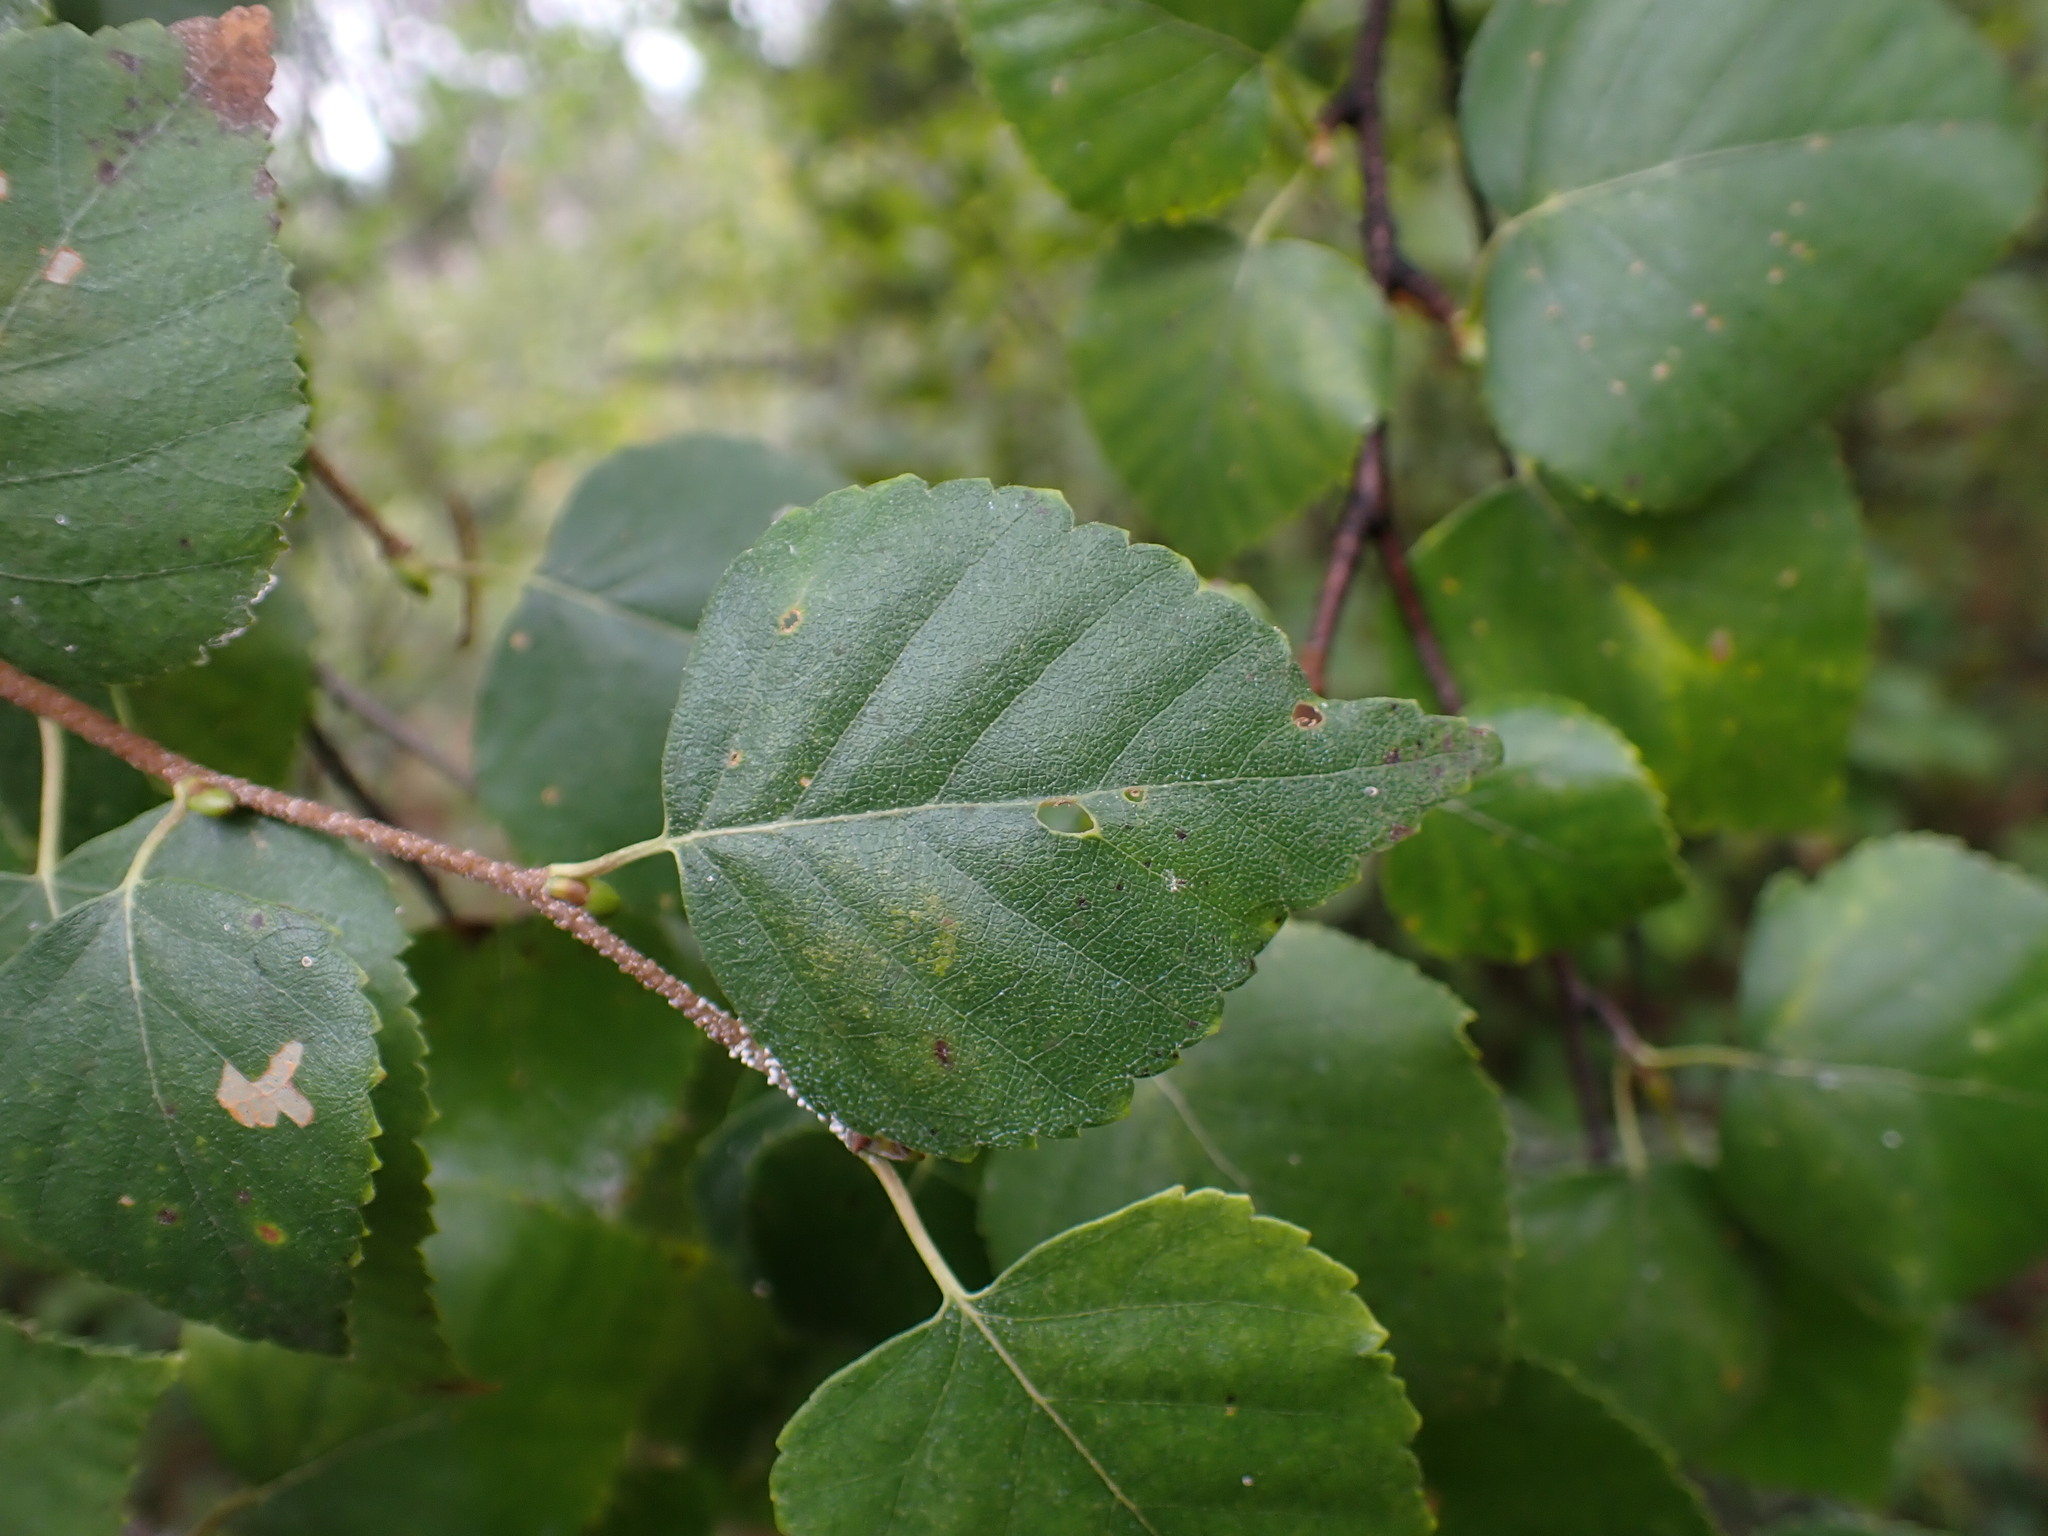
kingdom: Plantae
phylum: Tracheophyta
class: Magnoliopsida
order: Fagales
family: Betulaceae
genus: Betula
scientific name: Betula papyrifera
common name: Paper birch
